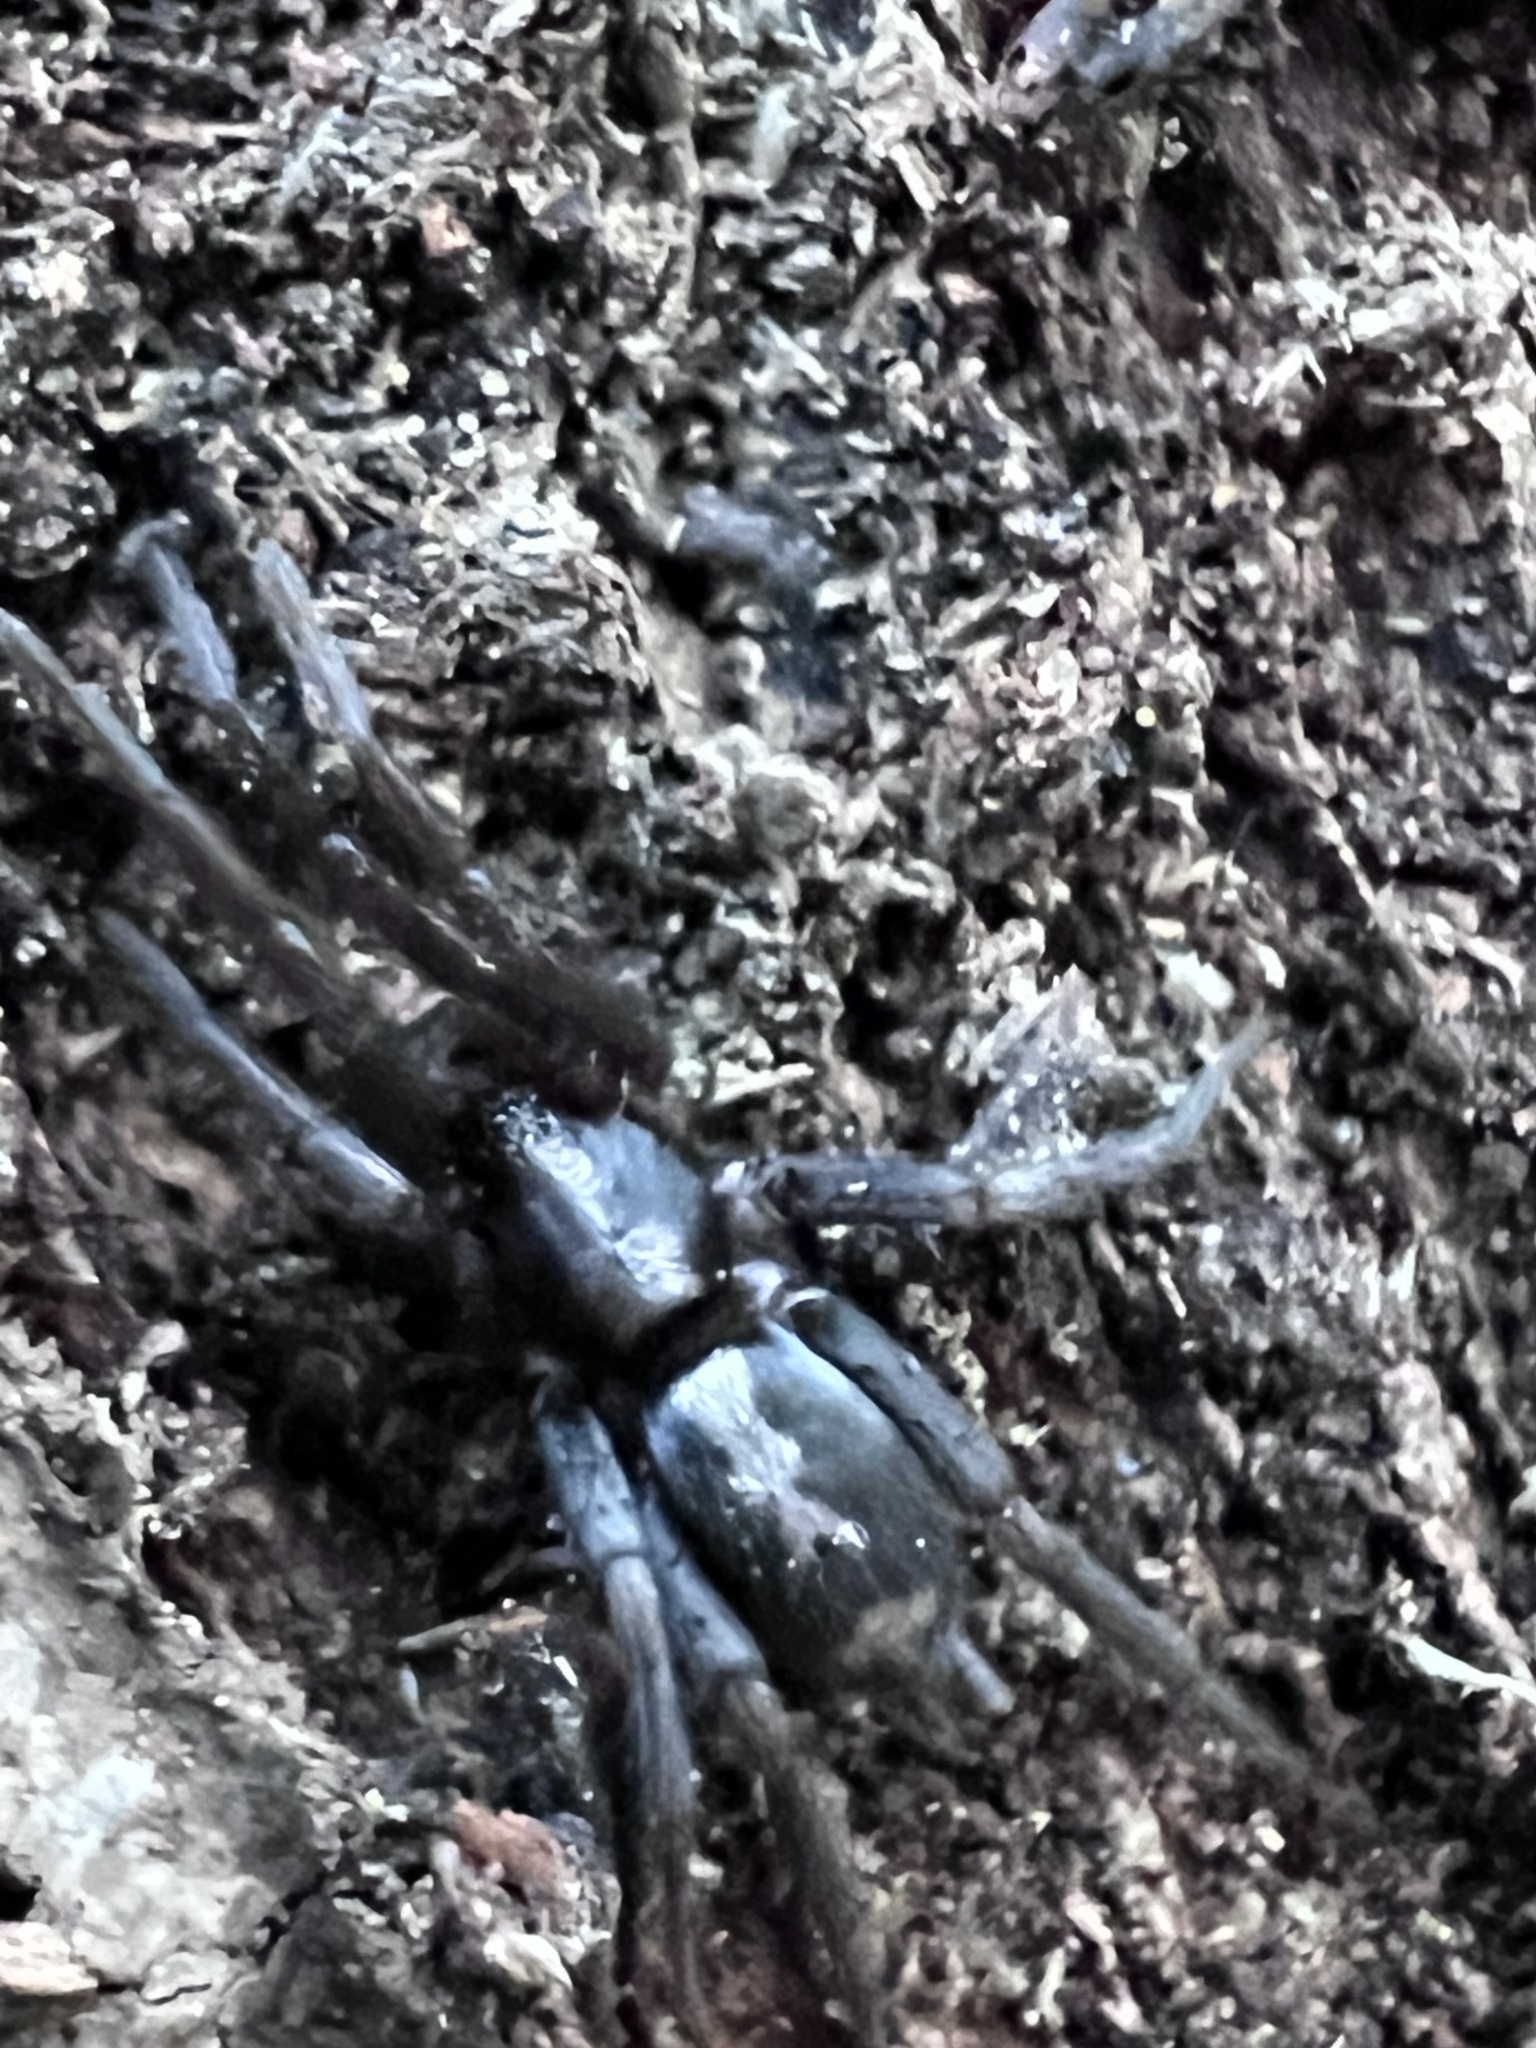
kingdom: Animalia
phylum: Arthropoda
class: Arachnida
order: Araneae
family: Gnaphosidae
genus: Herpyllus
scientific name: Herpyllus ecclesiasticus
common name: Eastern parson spider
